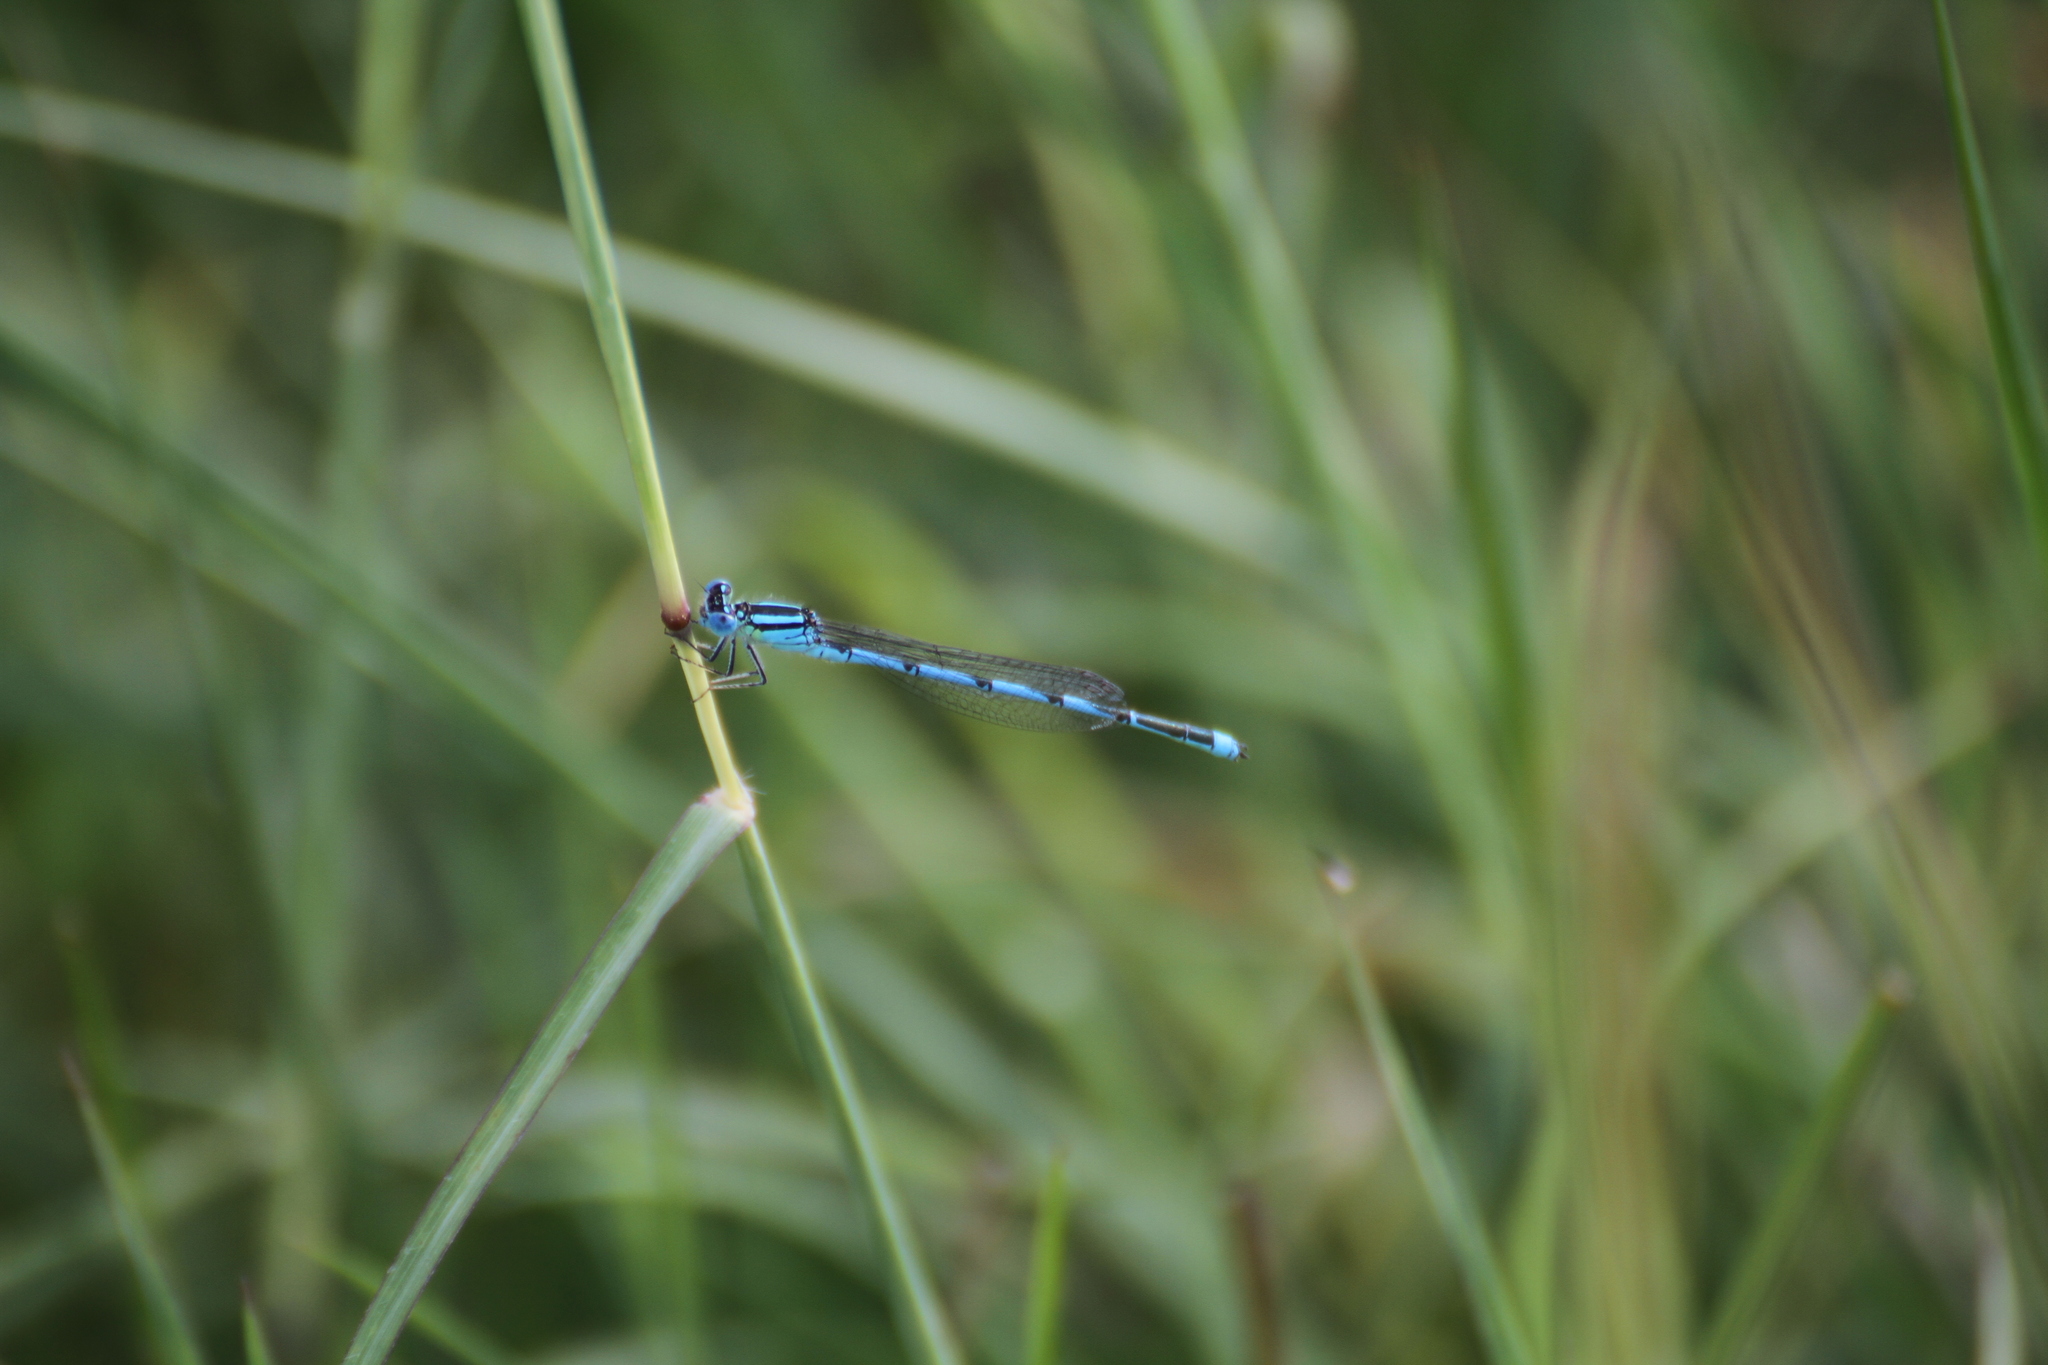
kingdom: Animalia
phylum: Arthropoda
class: Insecta
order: Odonata
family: Coenagrionidae
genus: Erythromma
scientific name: Erythromma lindenii
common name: Blue-eye
